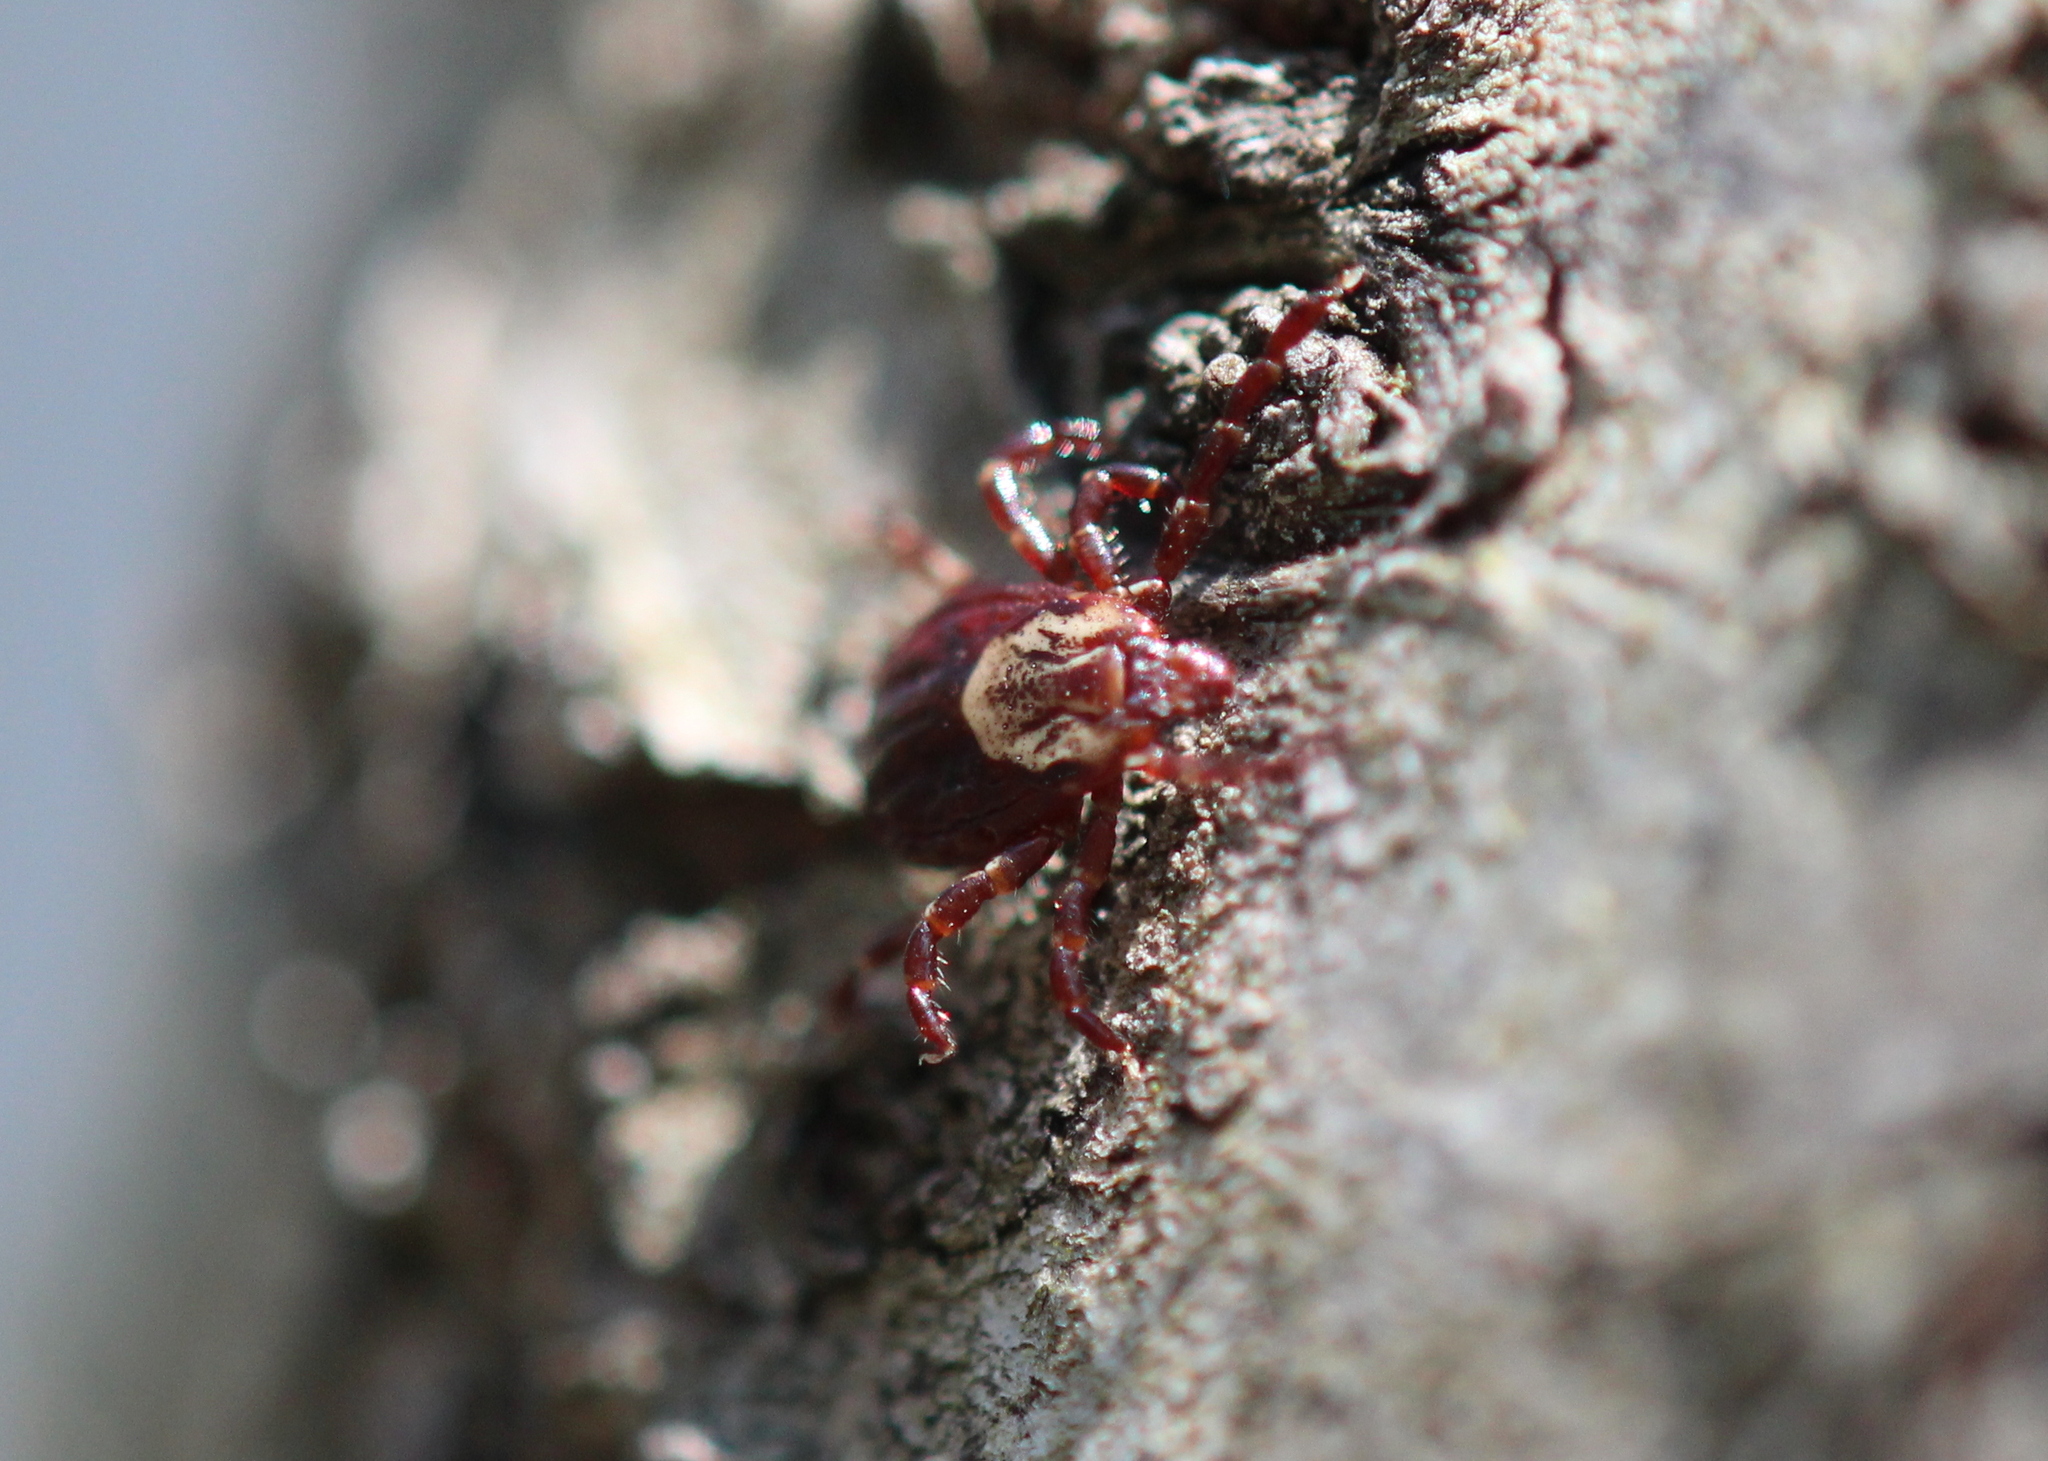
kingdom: Animalia
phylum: Arthropoda
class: Arachnida
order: Ixodida
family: Ixodidae
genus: Dermacentor
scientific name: Dermacentor variabilis
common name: American dog tick
